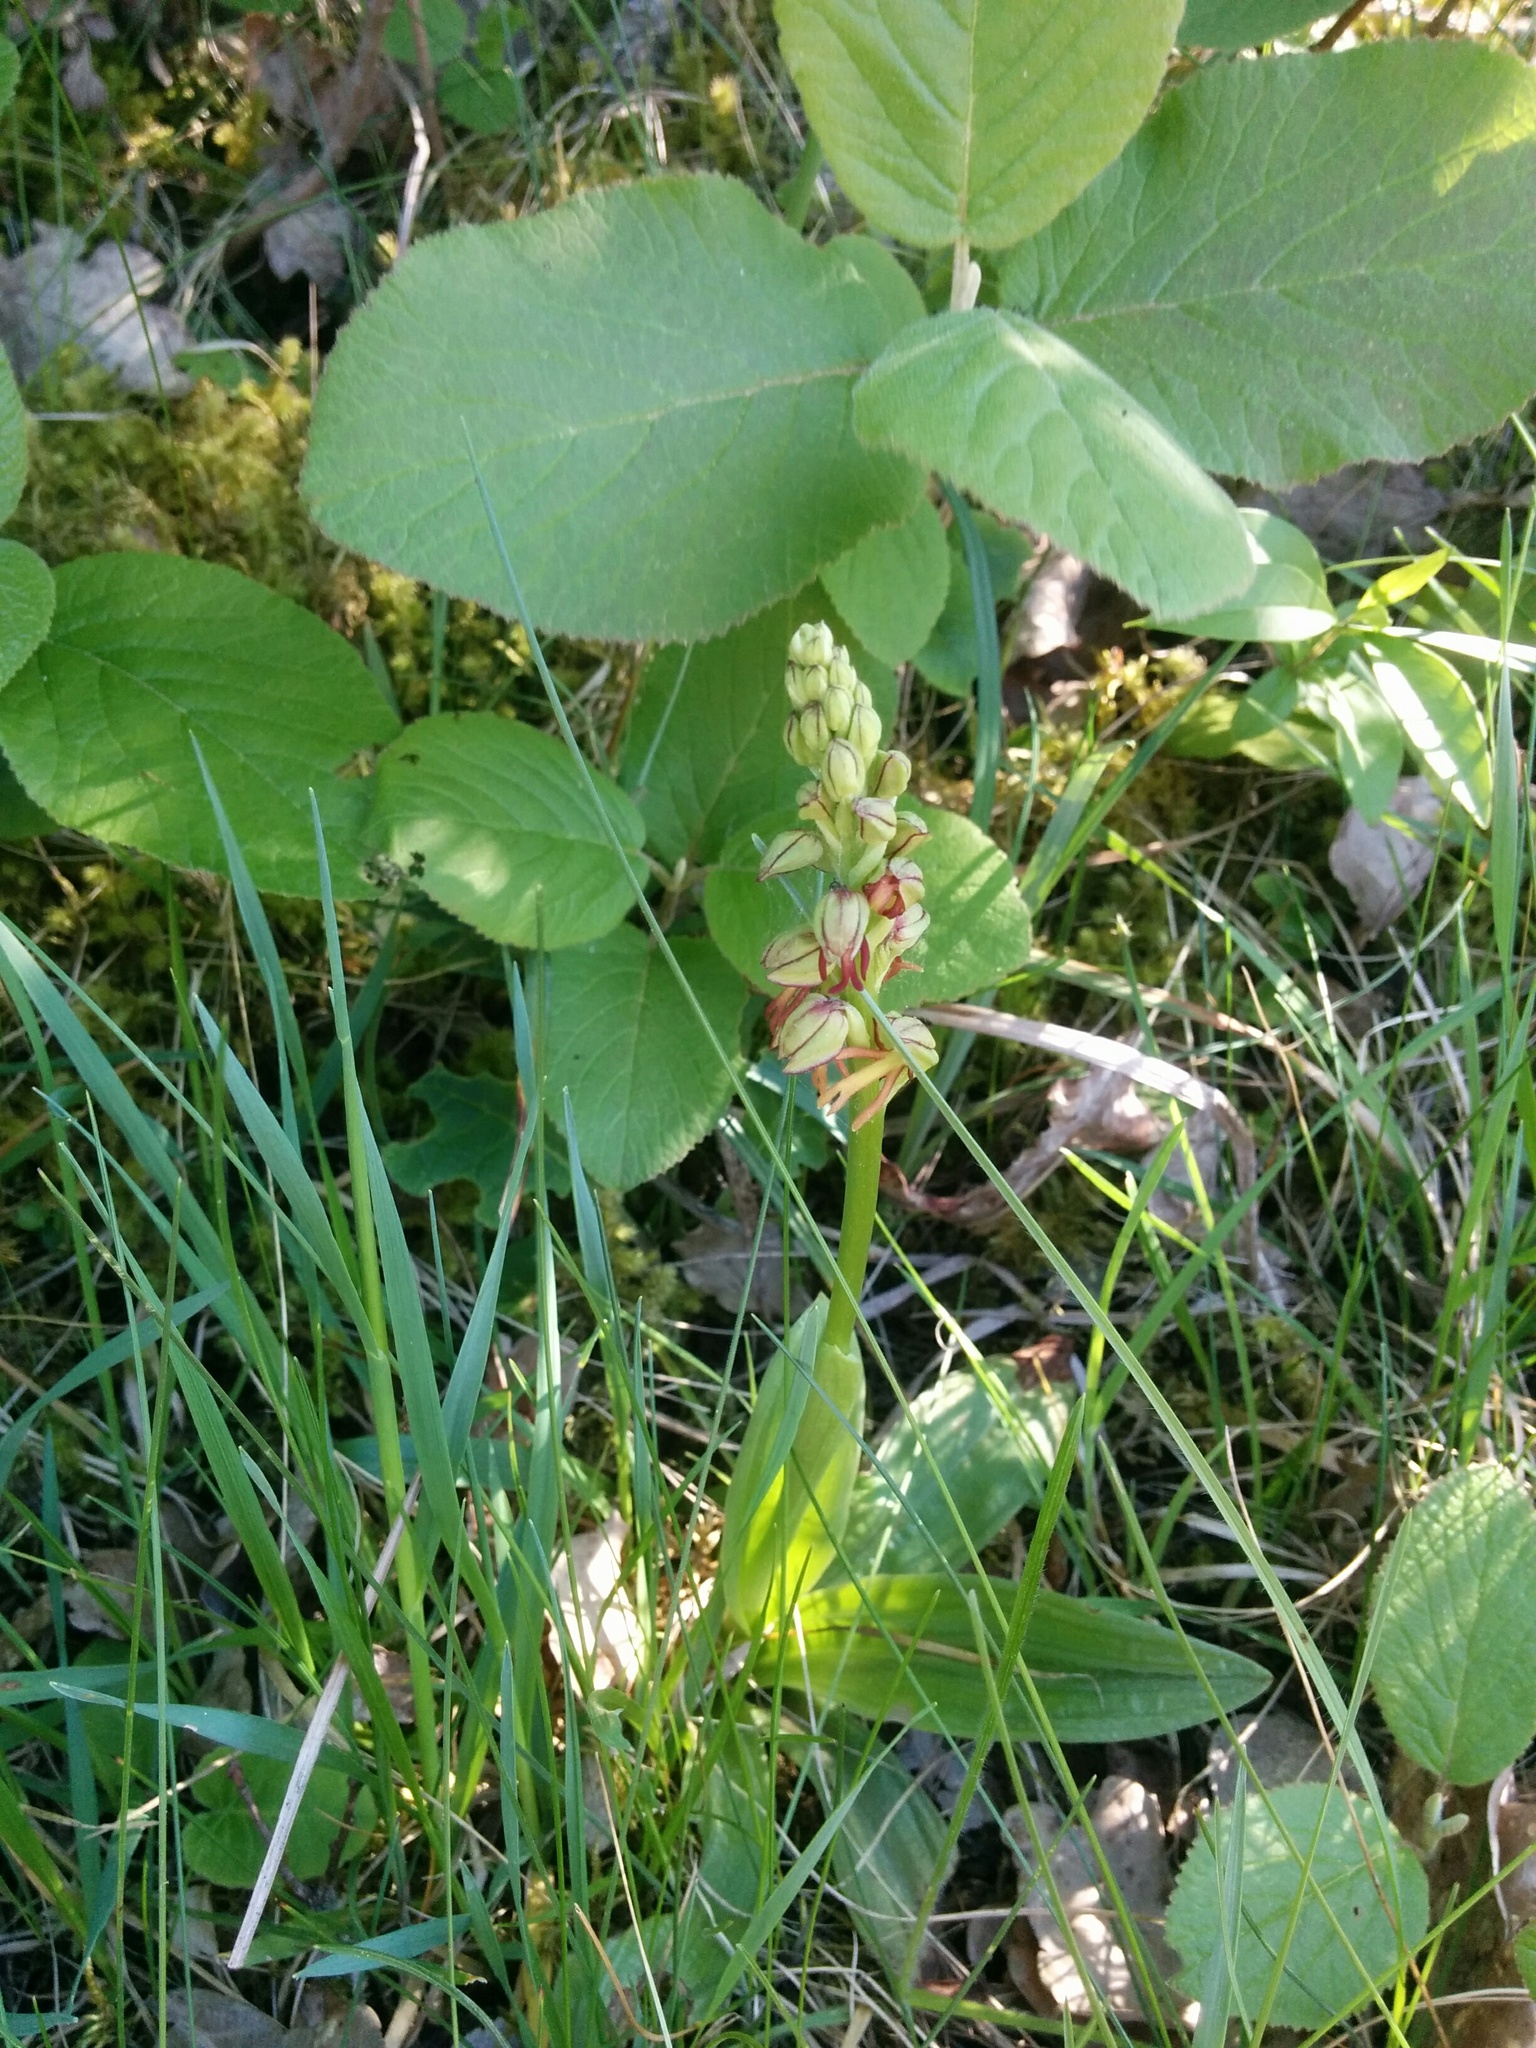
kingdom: Plantae
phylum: Tracheophyta
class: Liliopsida
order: Asparagales
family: Orchidaceae
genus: Orchis
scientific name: Orchis anthropophora
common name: Man orchid
